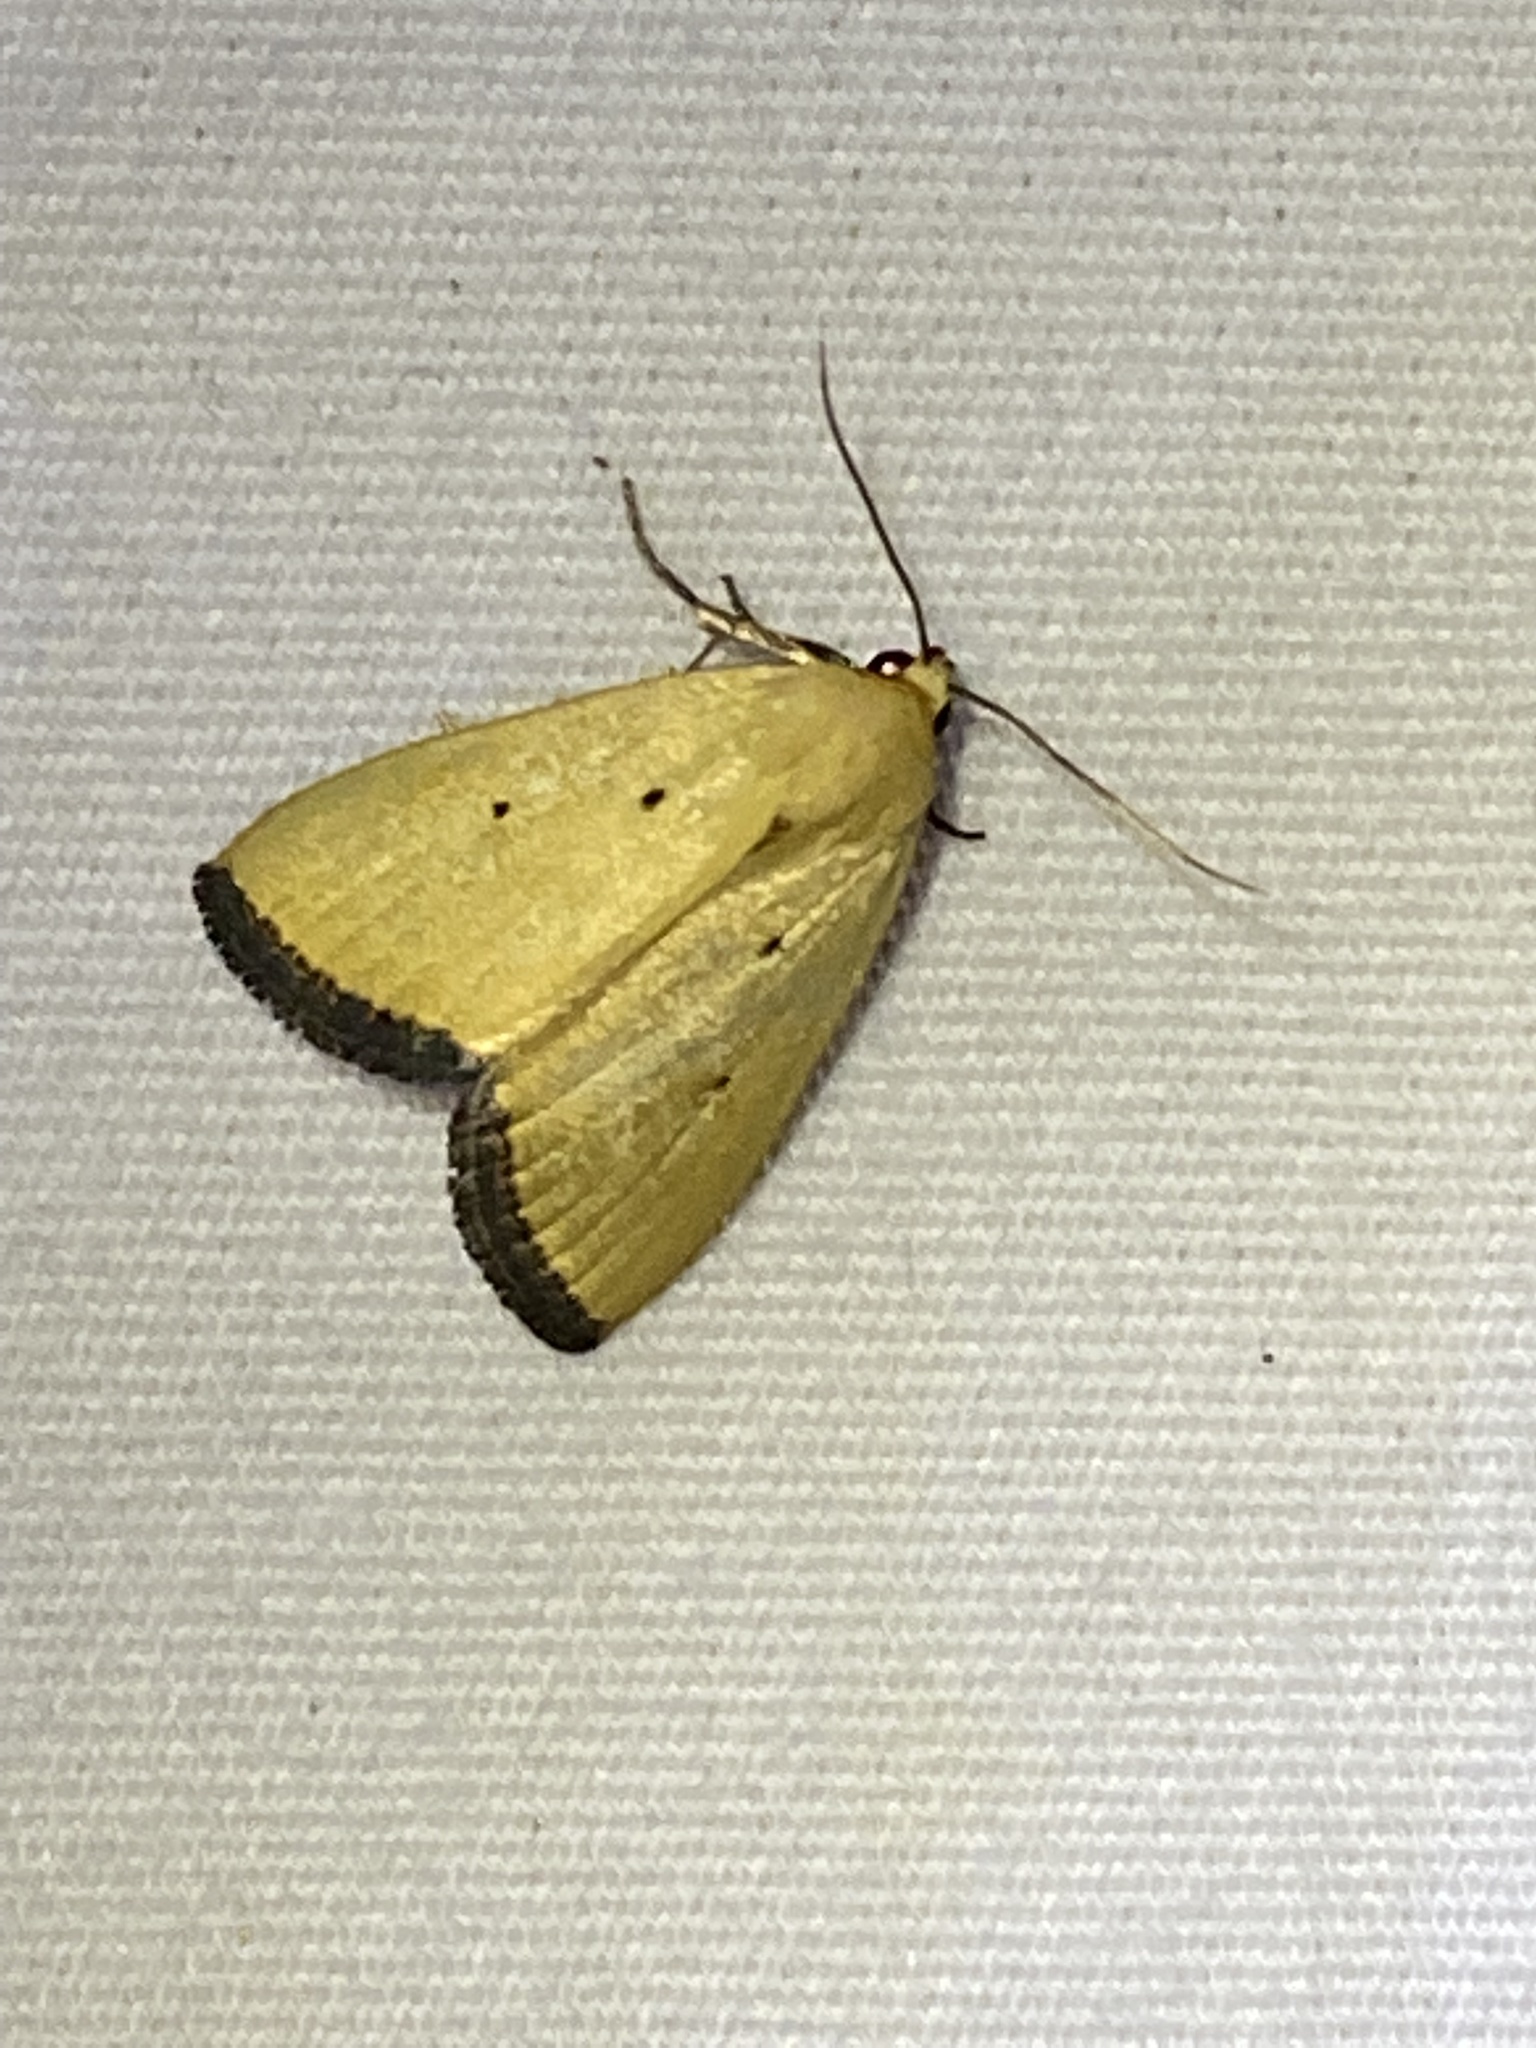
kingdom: Animalia
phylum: Arthropoda
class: Insecta
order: Lepidoptera
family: Noctuidae
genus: Marimatha
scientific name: Marimatha nigrofimbria
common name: Black-bordered lemon moth
